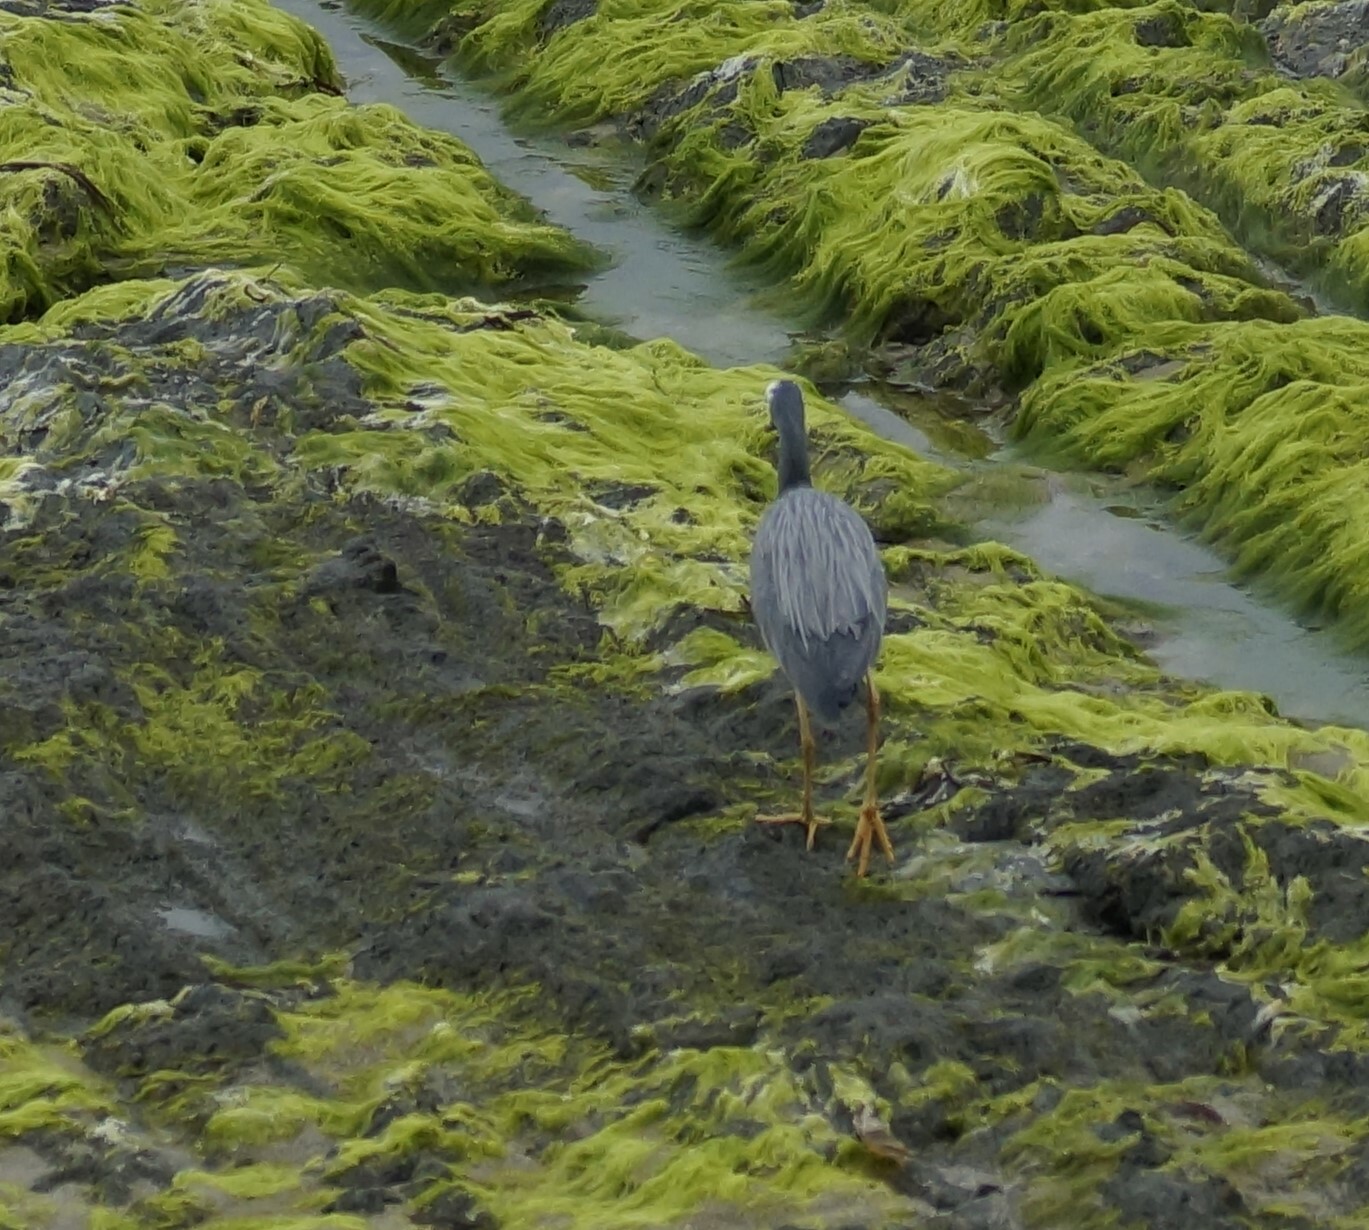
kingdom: Animalia
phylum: Chordata
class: Aves
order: Pelecaniformes
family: Ardeidae
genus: Egretta
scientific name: Egretta novaehollandiae
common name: White-faced heron
